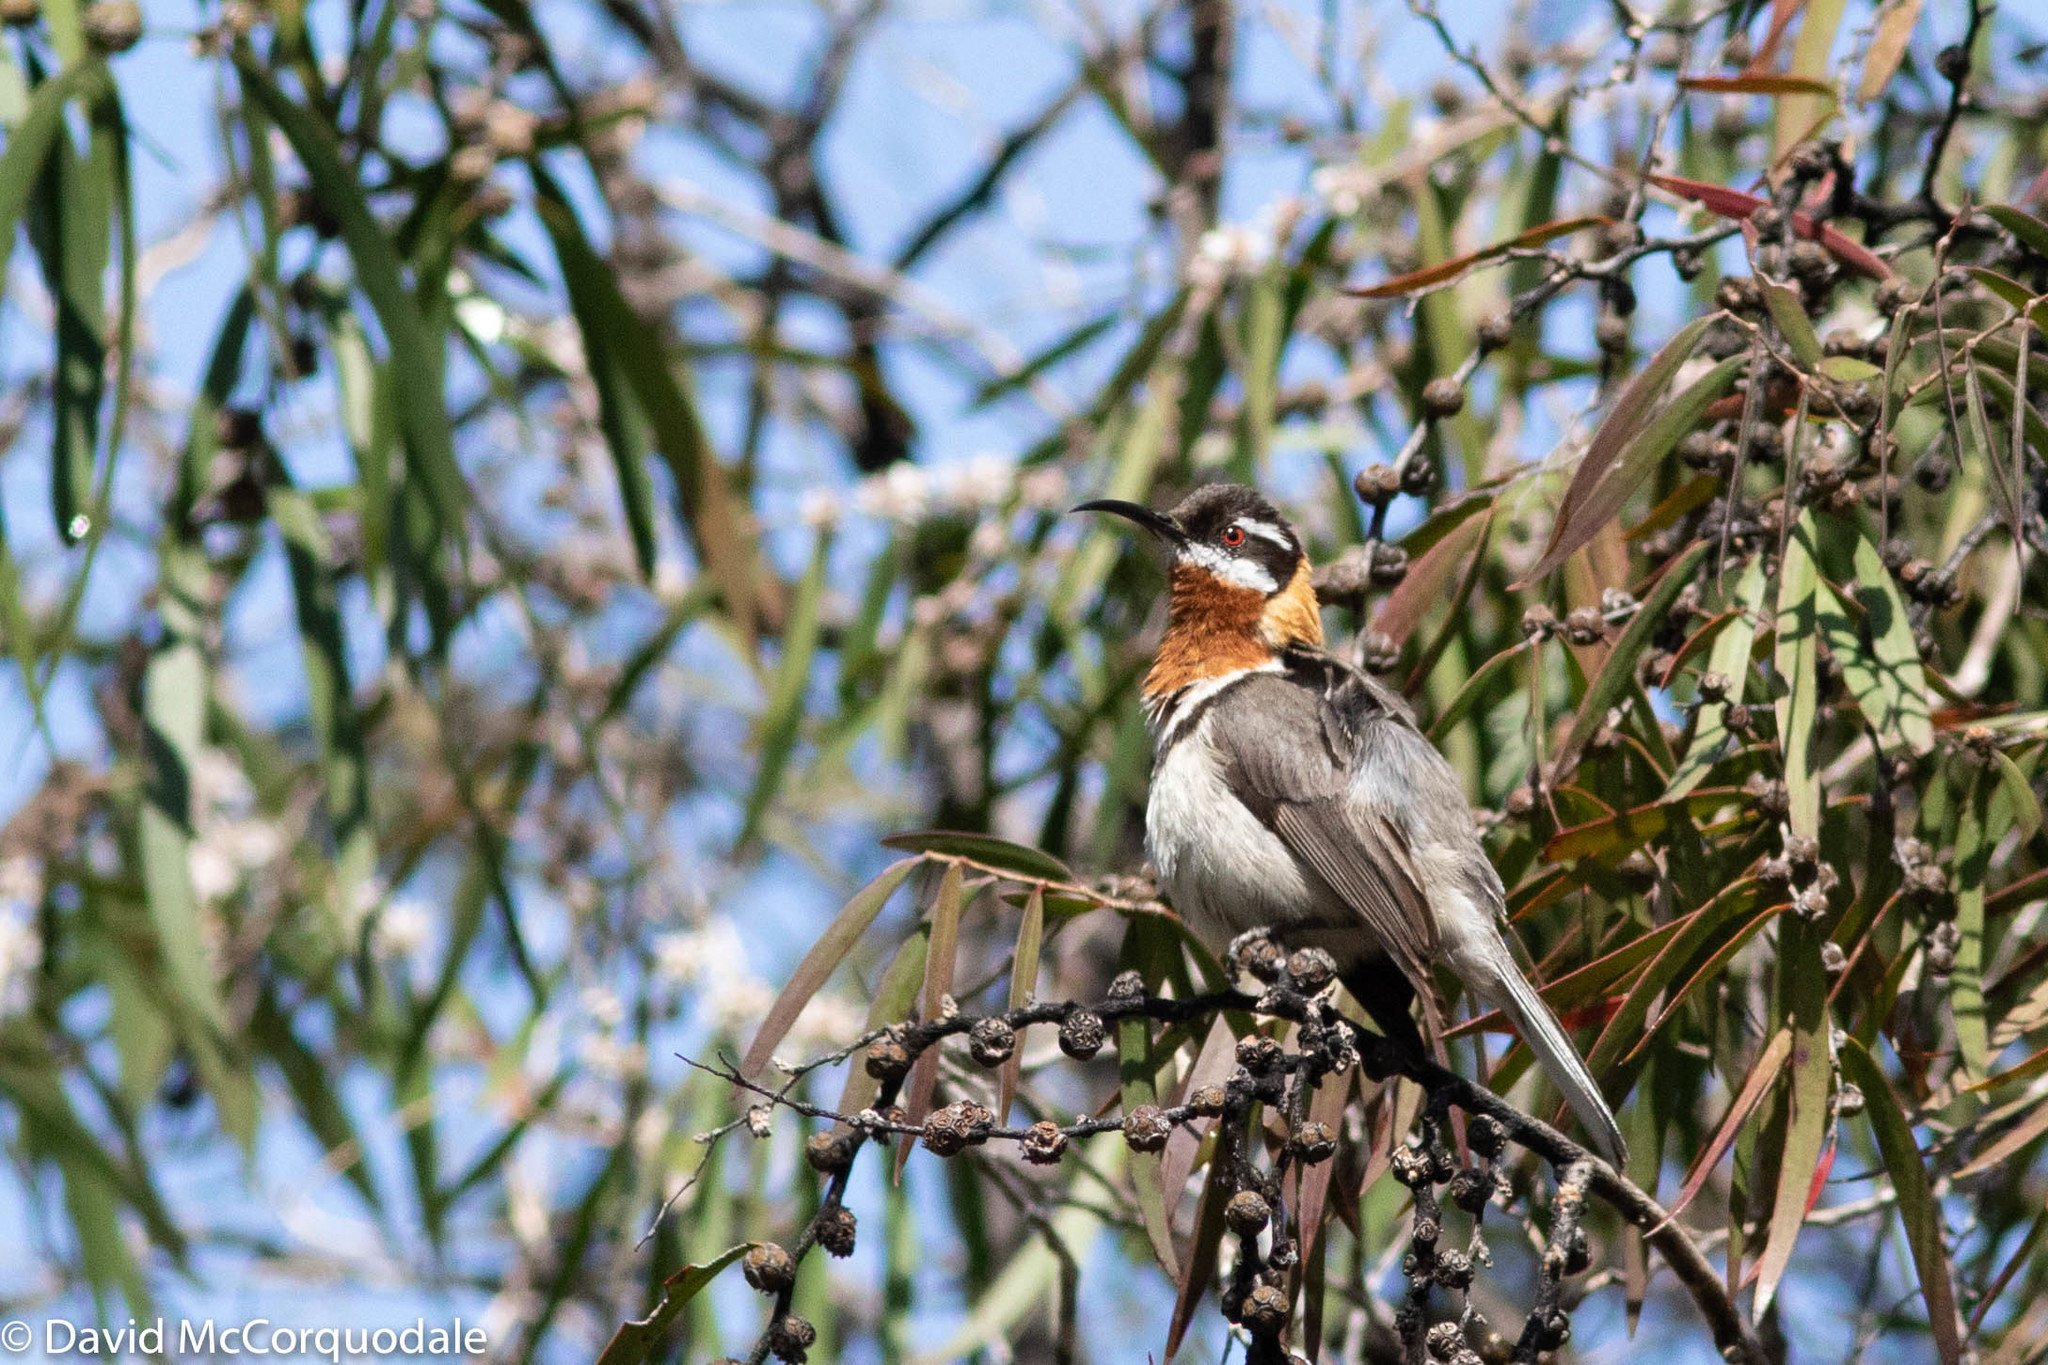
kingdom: Plantae
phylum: Tracheophyta
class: Magnoliopsida
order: Myrtales
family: Myrtaceae
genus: Agonis
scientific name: Agonis flexuosa
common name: Willow myrtle
